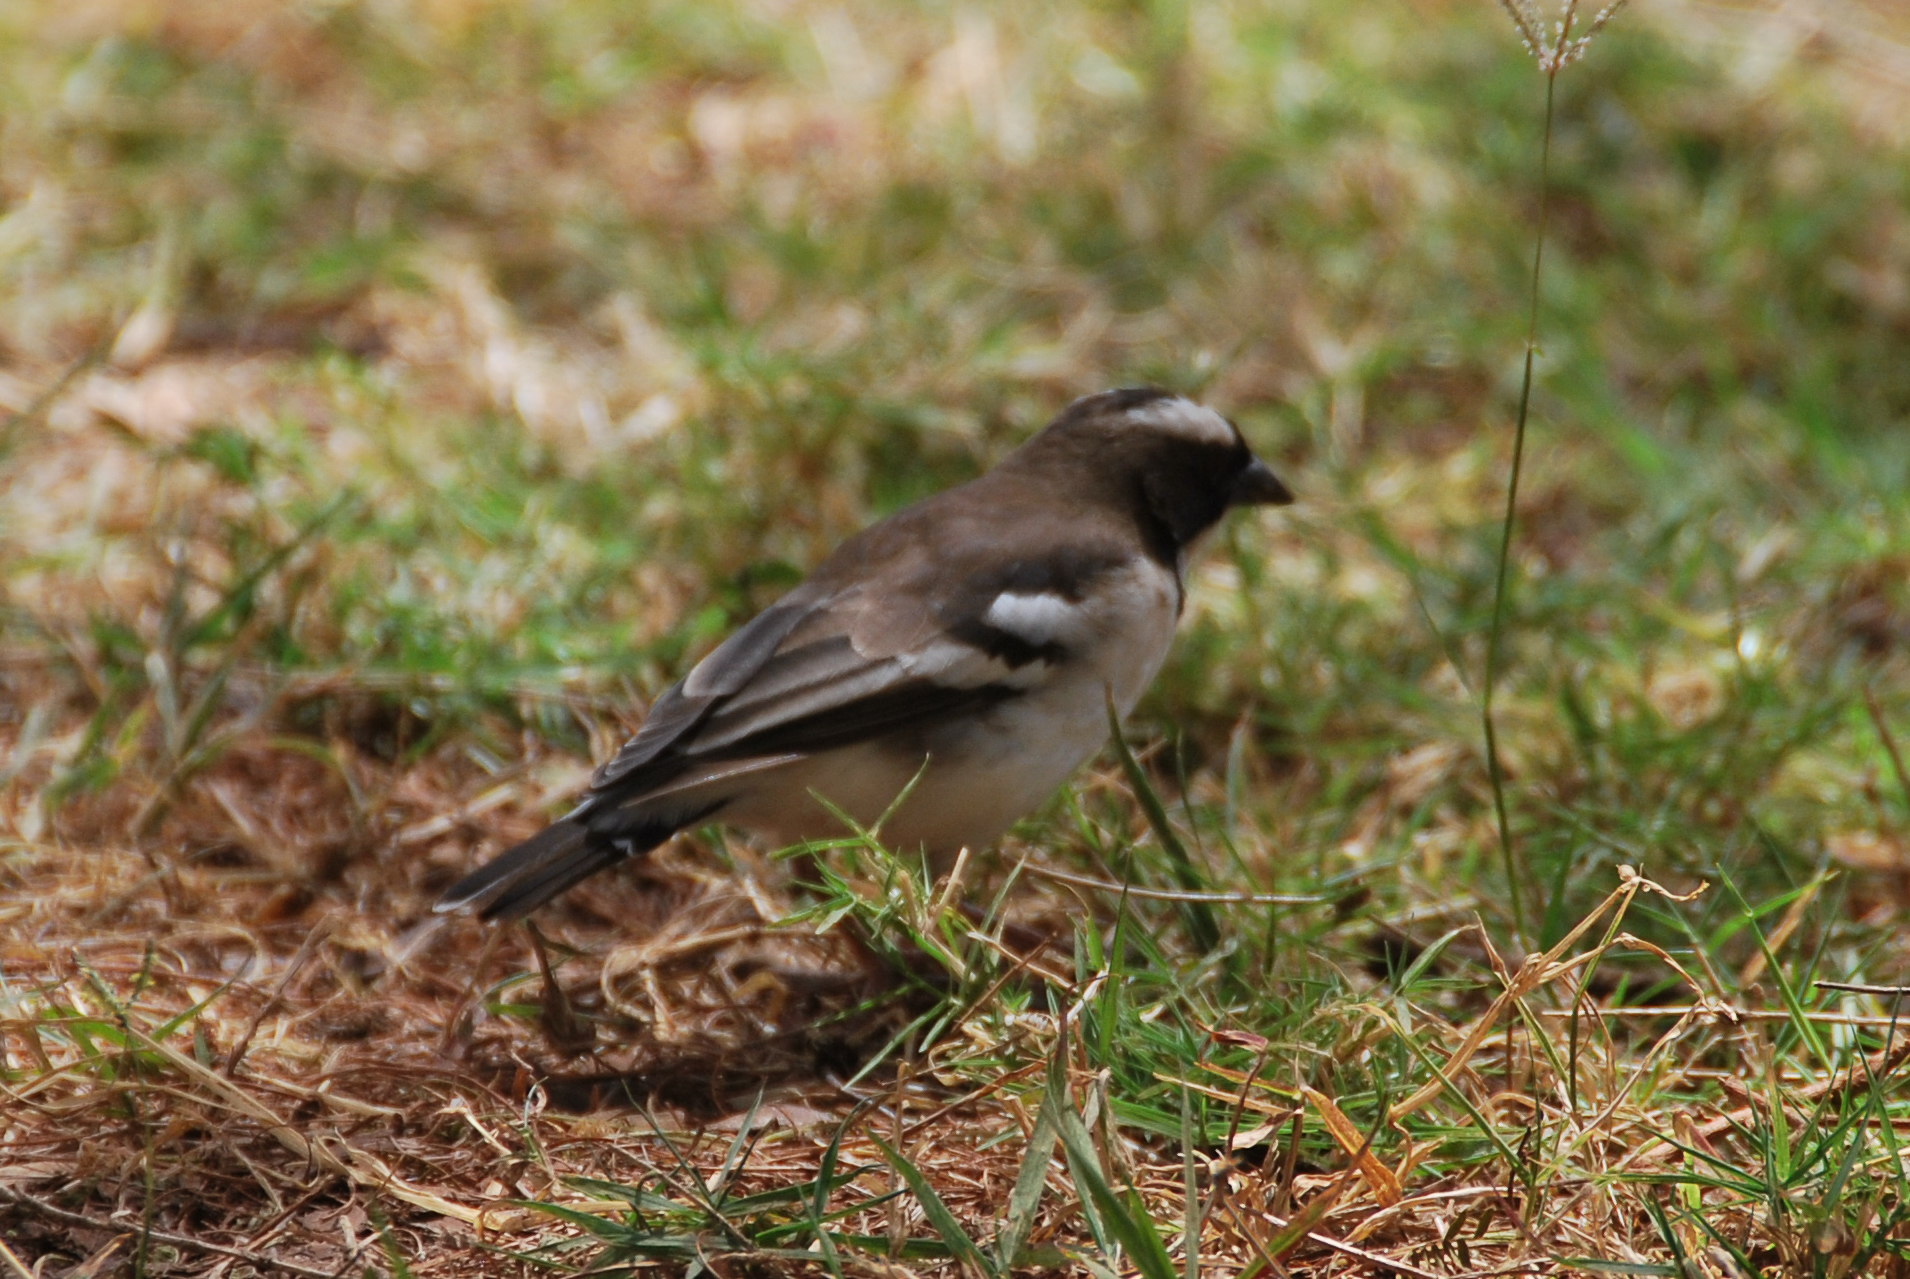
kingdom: Animalia
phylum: Chordata
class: Aves
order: Passeriformes
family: Passeridae
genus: Plocepasser
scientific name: Plocepasser mahali
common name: White-browed sparrow-weaver
